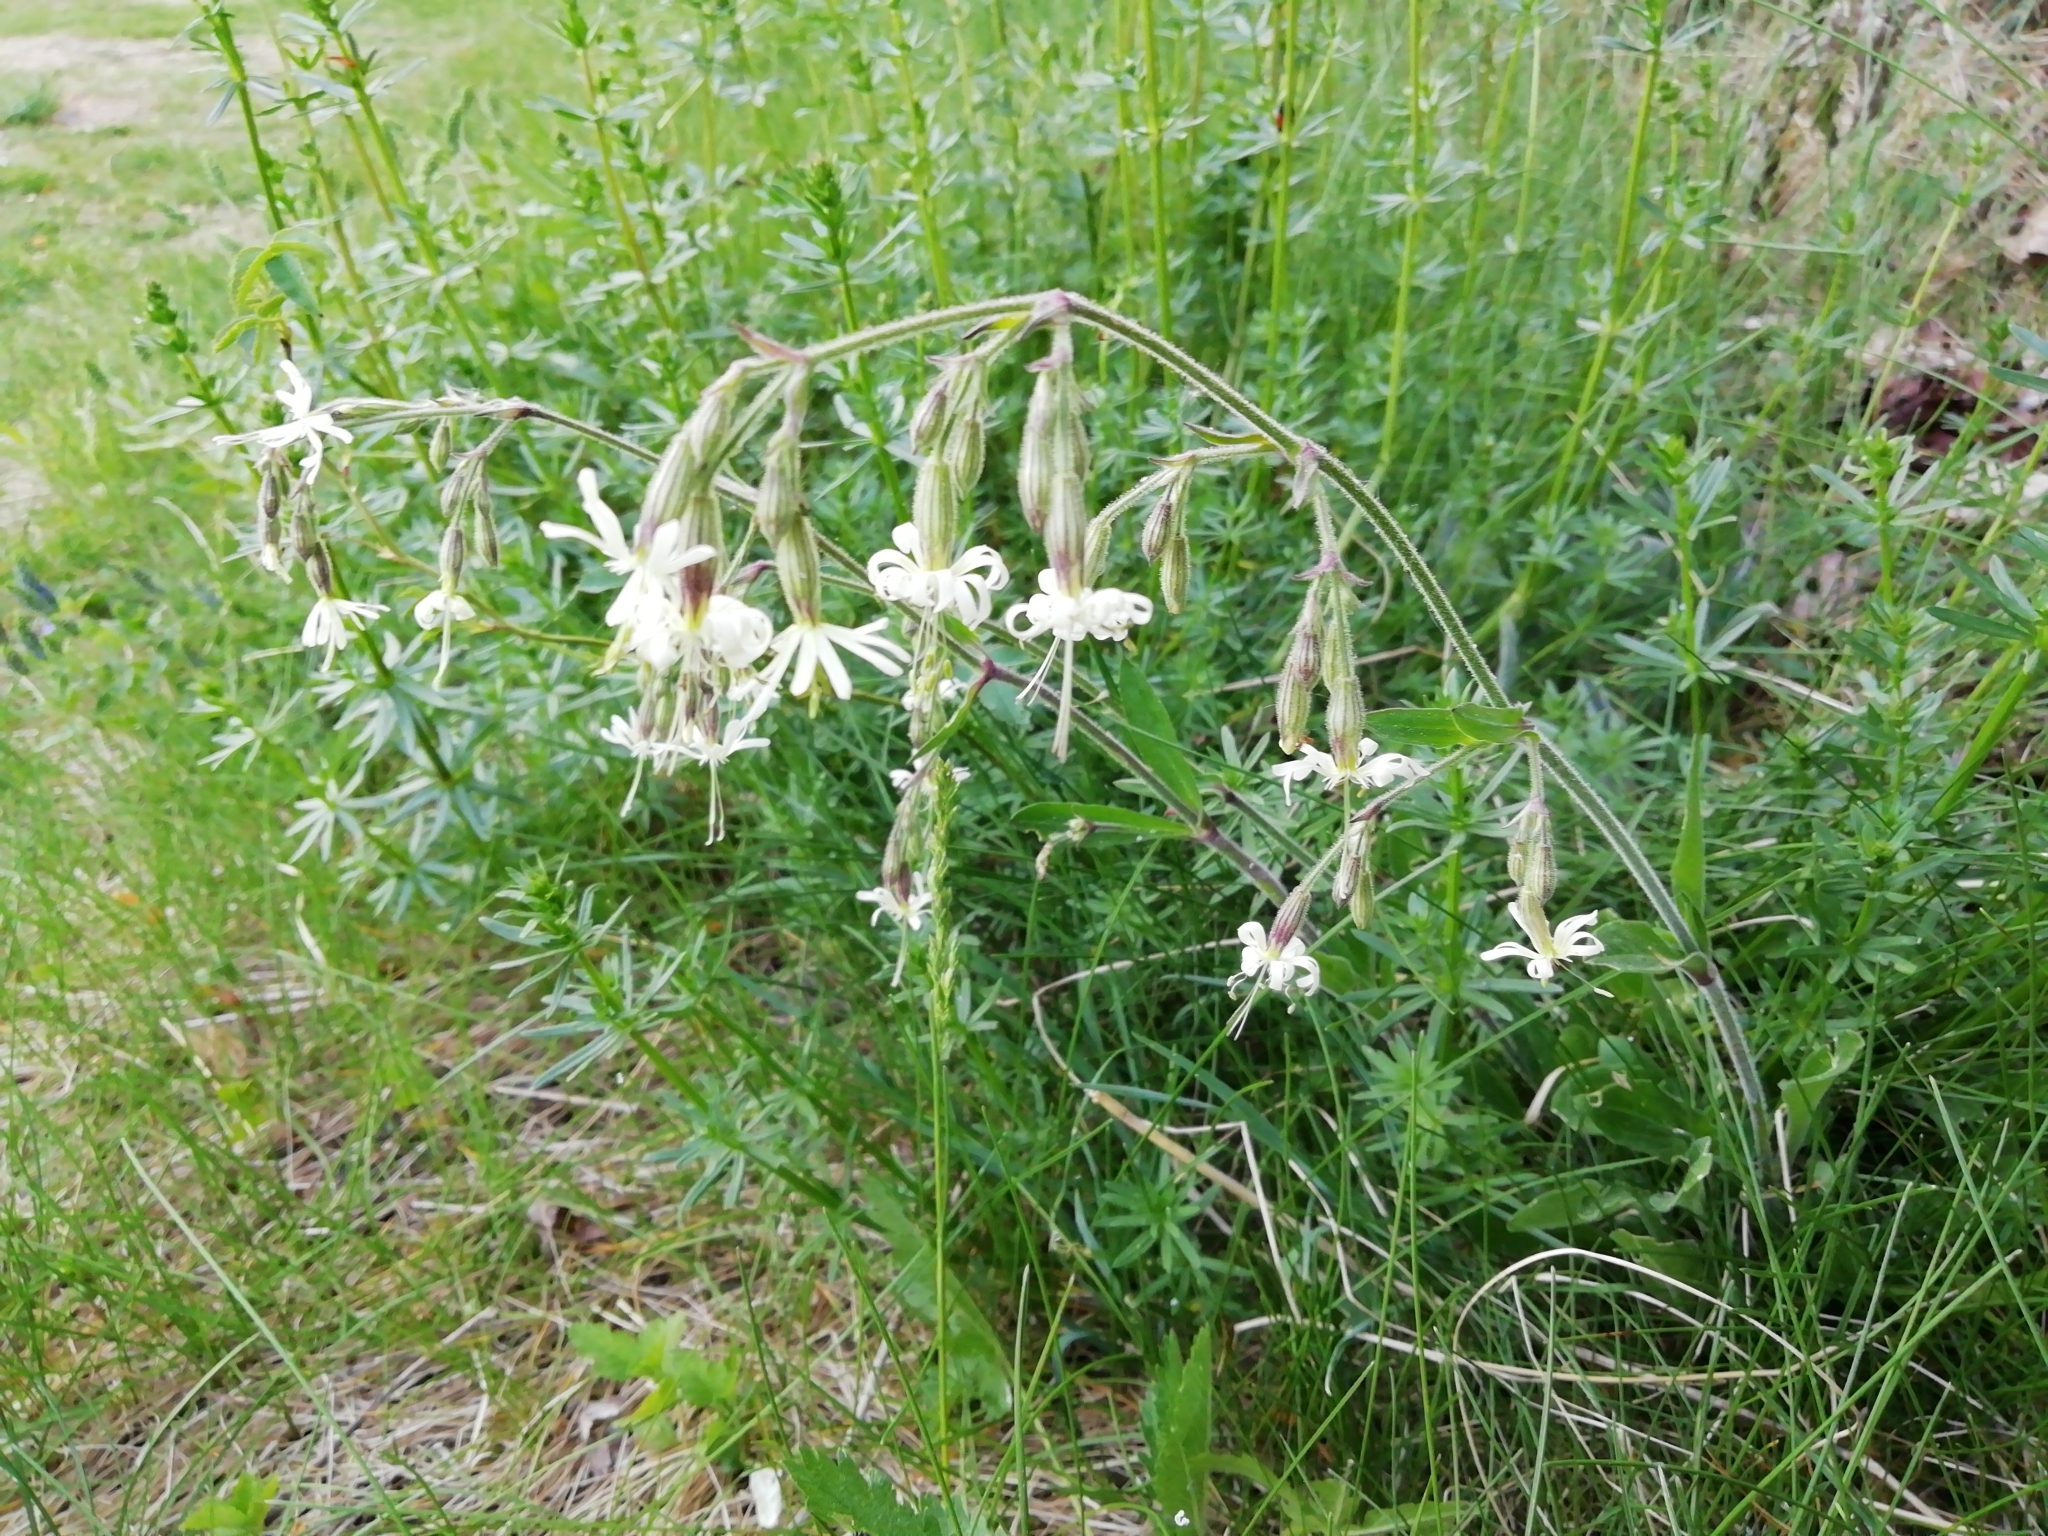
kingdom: Plantae
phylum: Tracheophyta
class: Magnoliopsida
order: Caryophyllales
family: Caryophyllaceae
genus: Silene
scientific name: Silene nutans
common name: Nottingham catchfly
